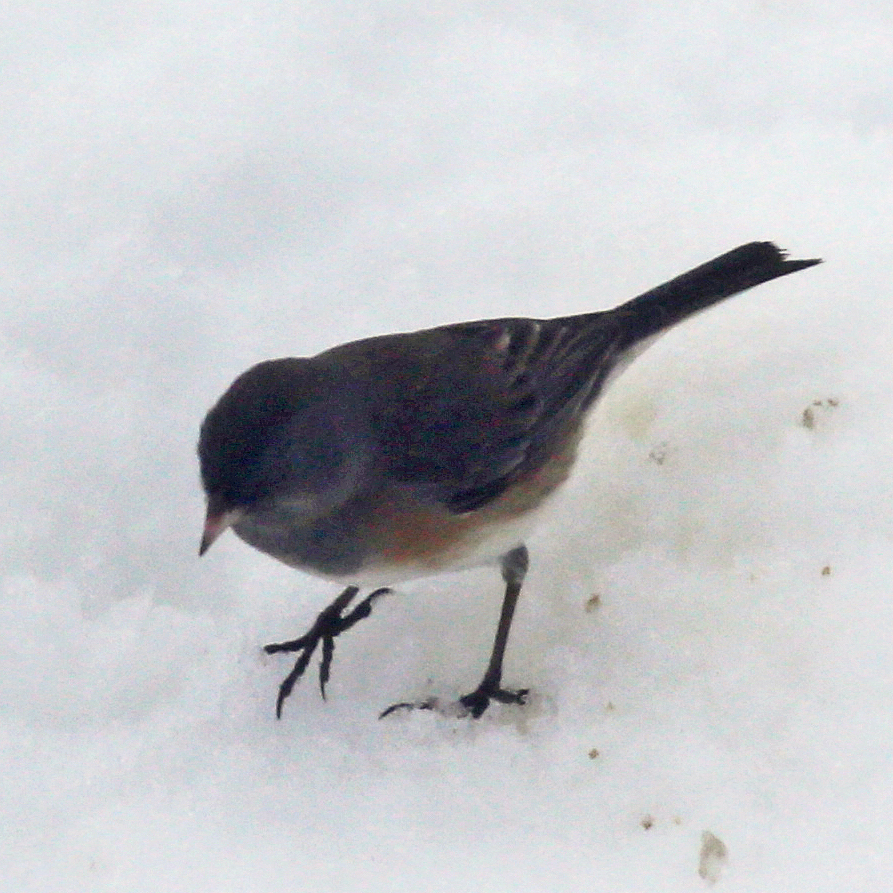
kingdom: Animalia
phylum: Chordata
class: Aves
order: Passeriformes
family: Passerellidae
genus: Junco
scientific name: Junco hyemalis
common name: Dark-eyed junco
